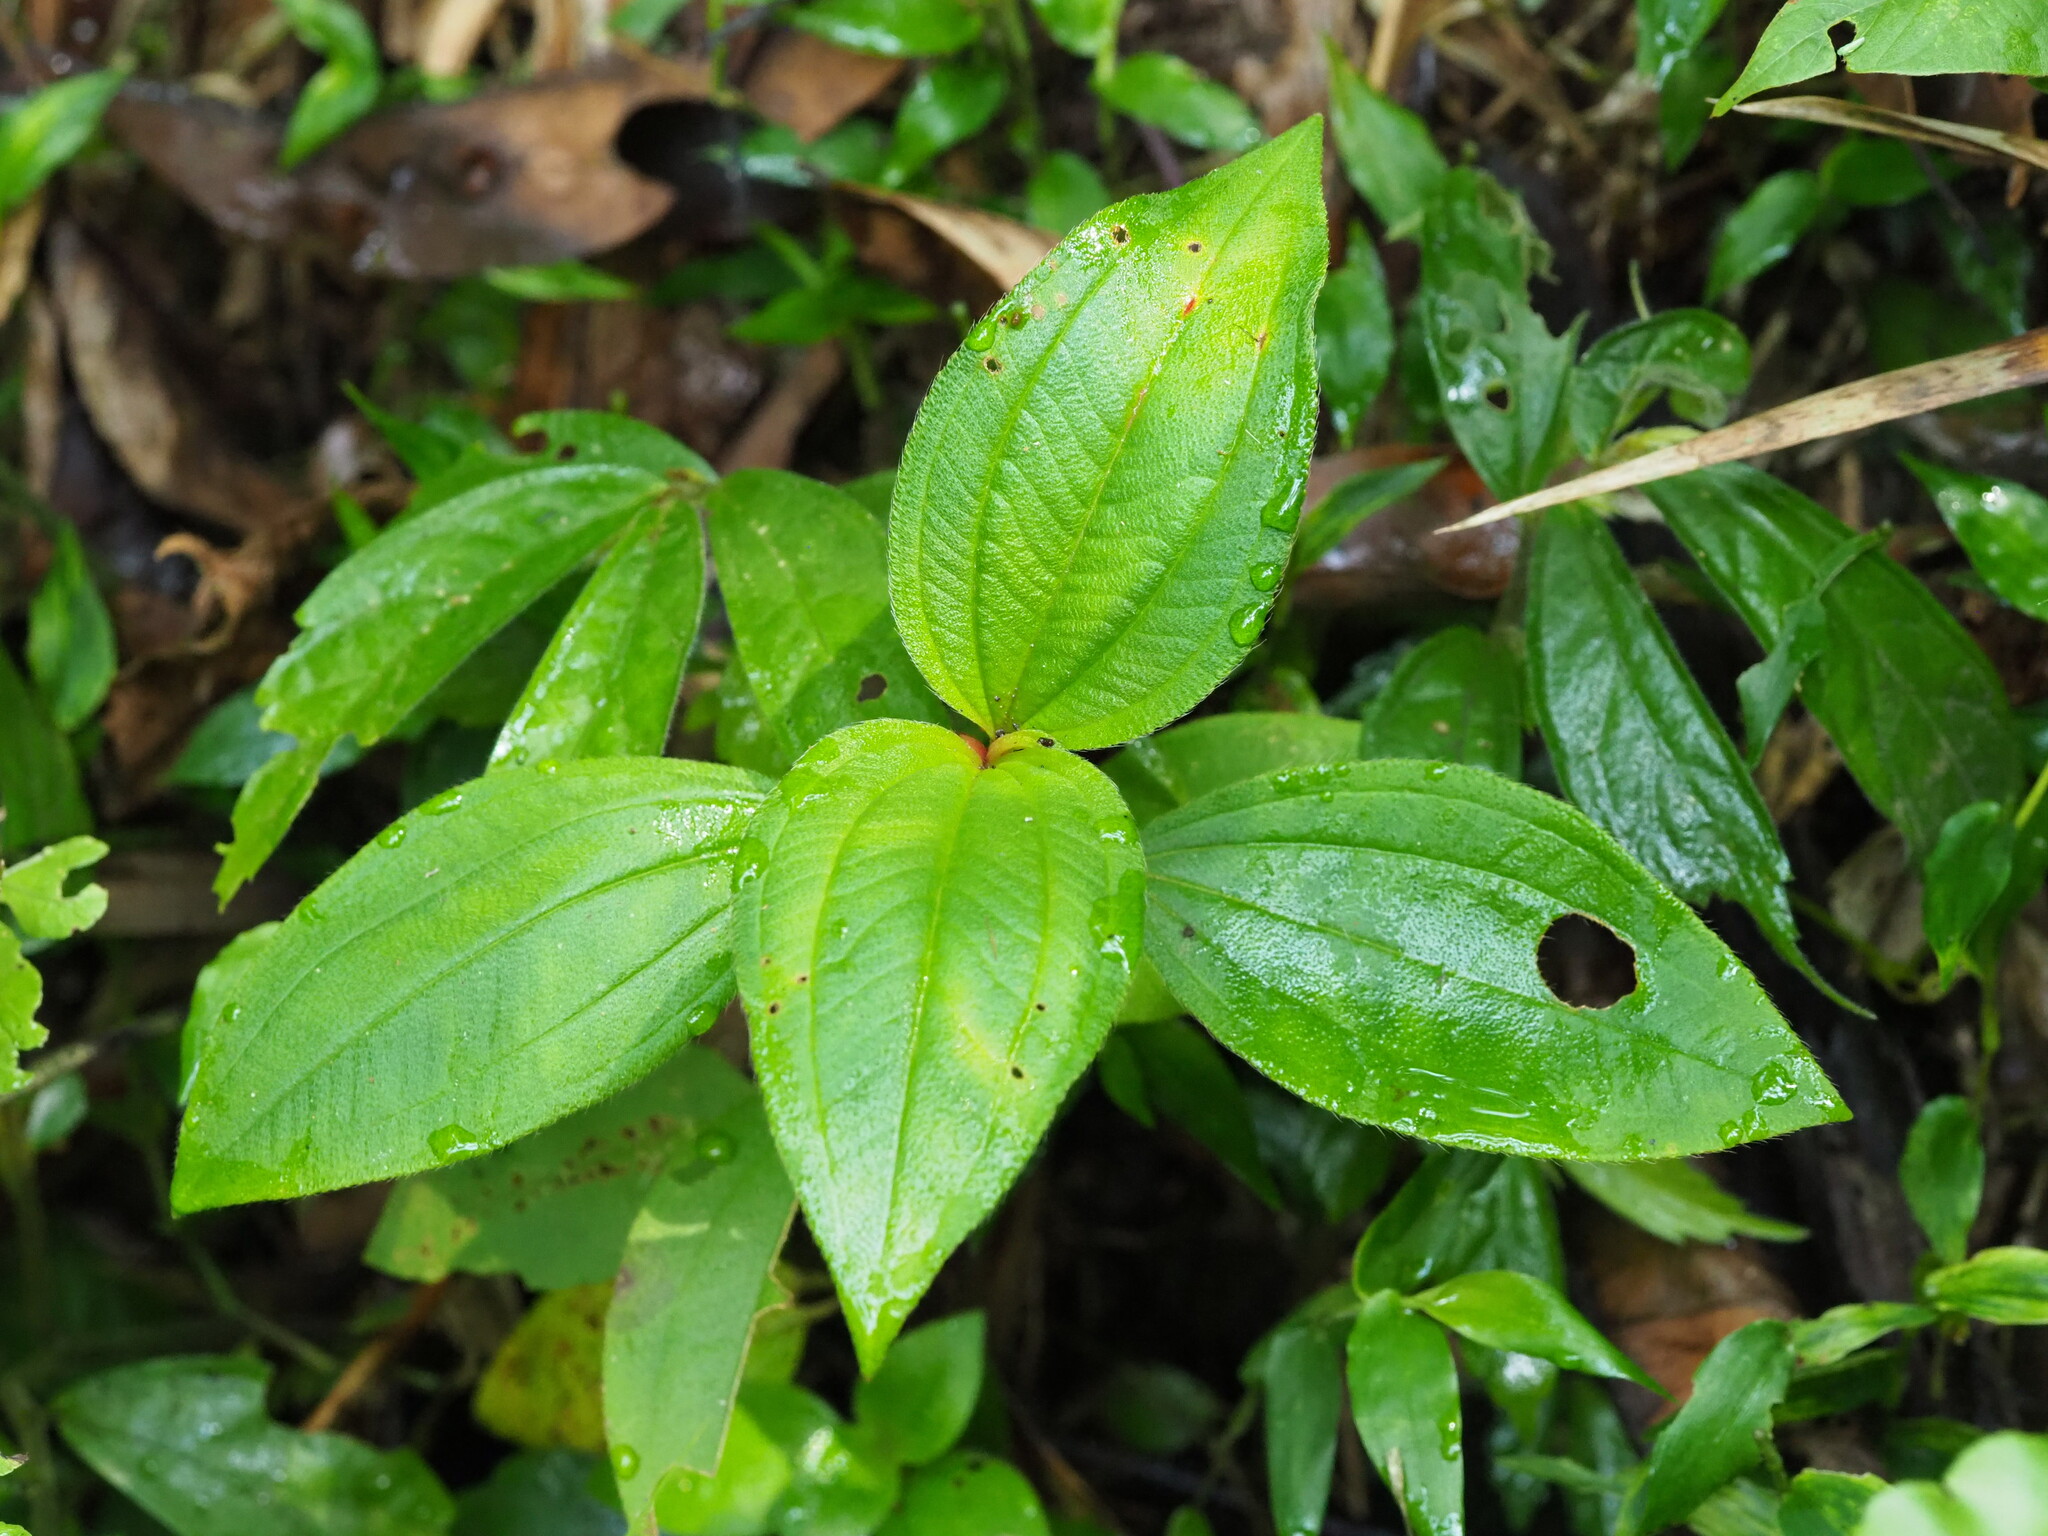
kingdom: Plantae
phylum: Tracheophyta
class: Magnoliopsida
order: Myrtales
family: Melastomataceae
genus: Melastoma
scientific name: Melastoma malabathricum
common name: Indian-rhododendron
